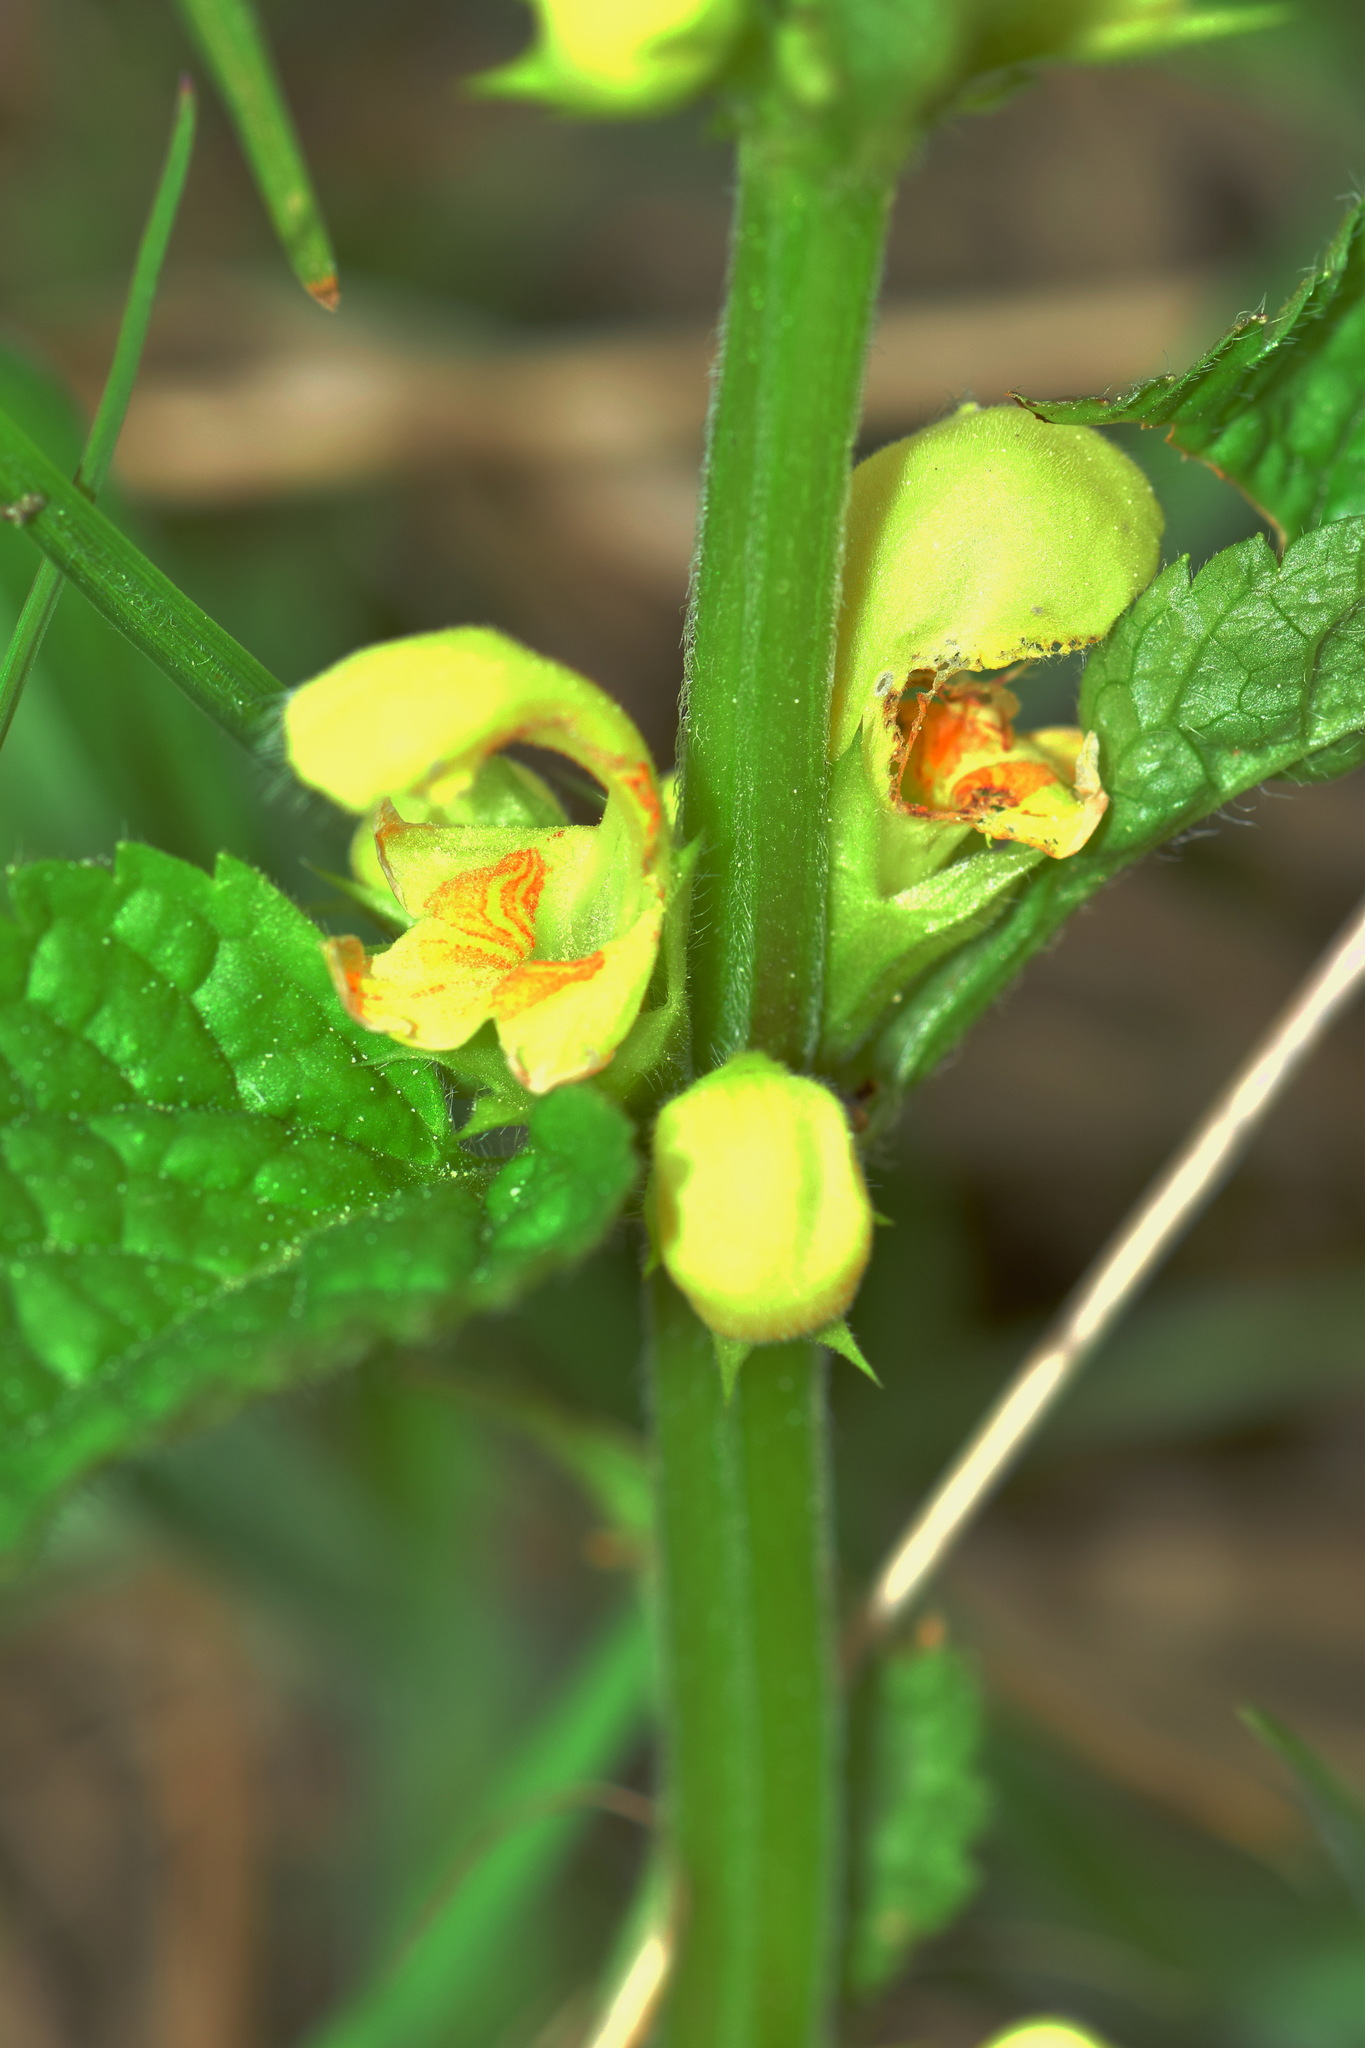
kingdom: Plantae
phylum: Tracheophyta
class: Magnoliopsida
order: Lamiales
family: Lamiaceae
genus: Lamium
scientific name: Lamium galeobdolon
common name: Yellow archangel
